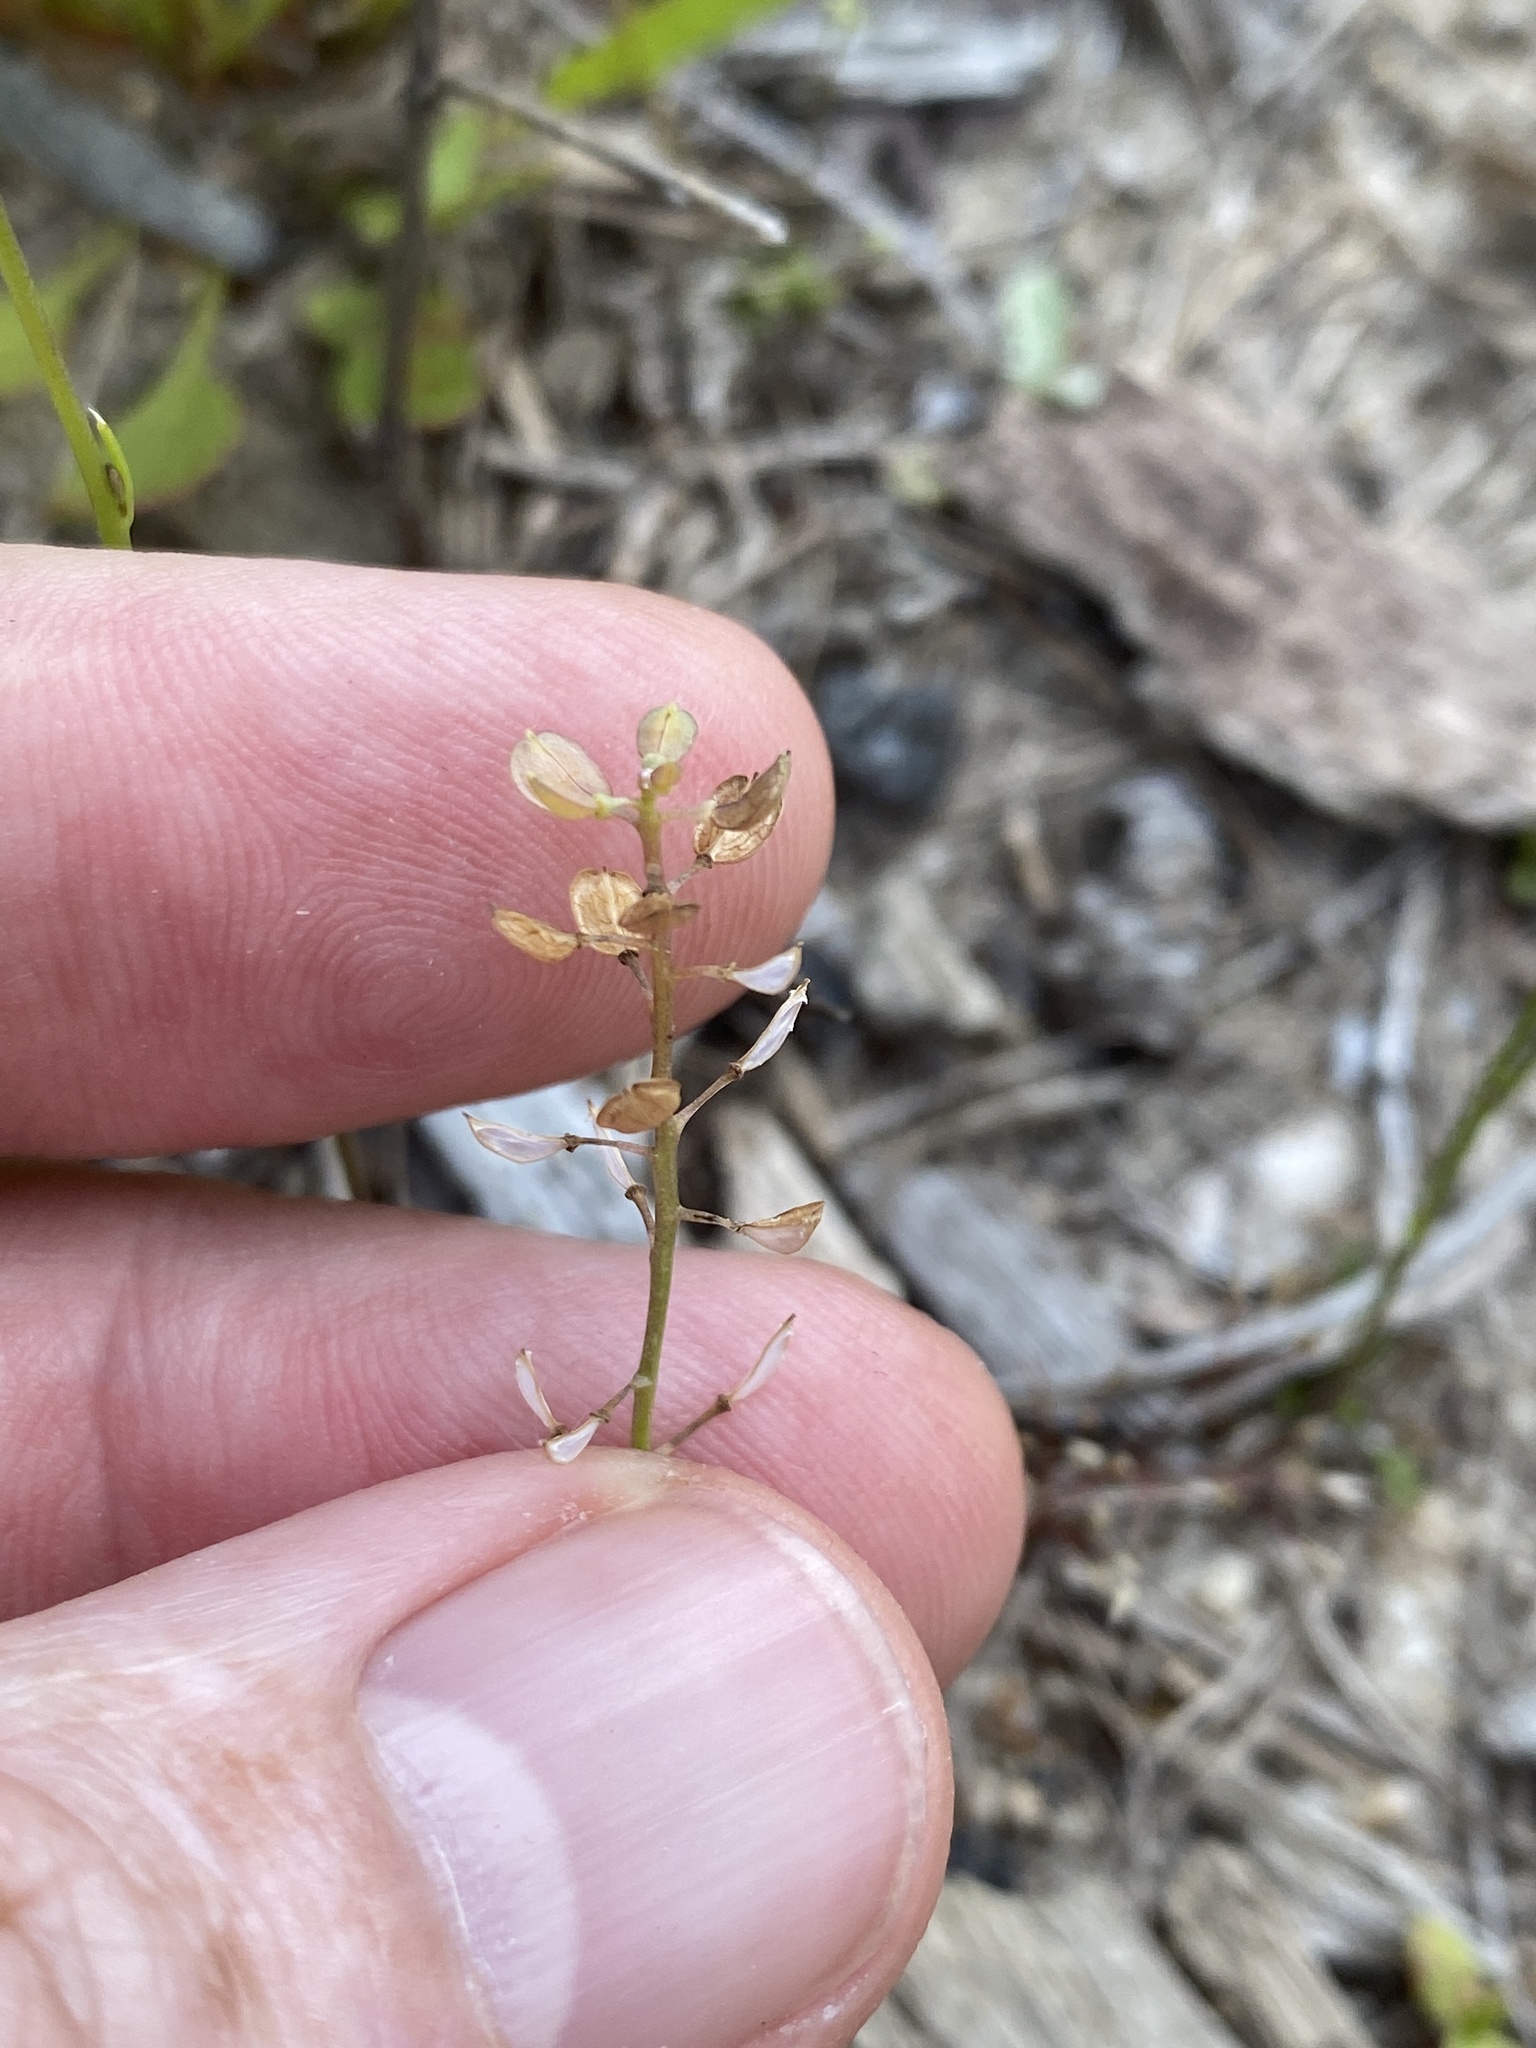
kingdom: Plantae
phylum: Tracheophyta
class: Magnoliopsida
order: Brassicales
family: Brassicaceae
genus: Teesdalia
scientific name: Teesdalia nudicaulis
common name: Shepherd's cress
